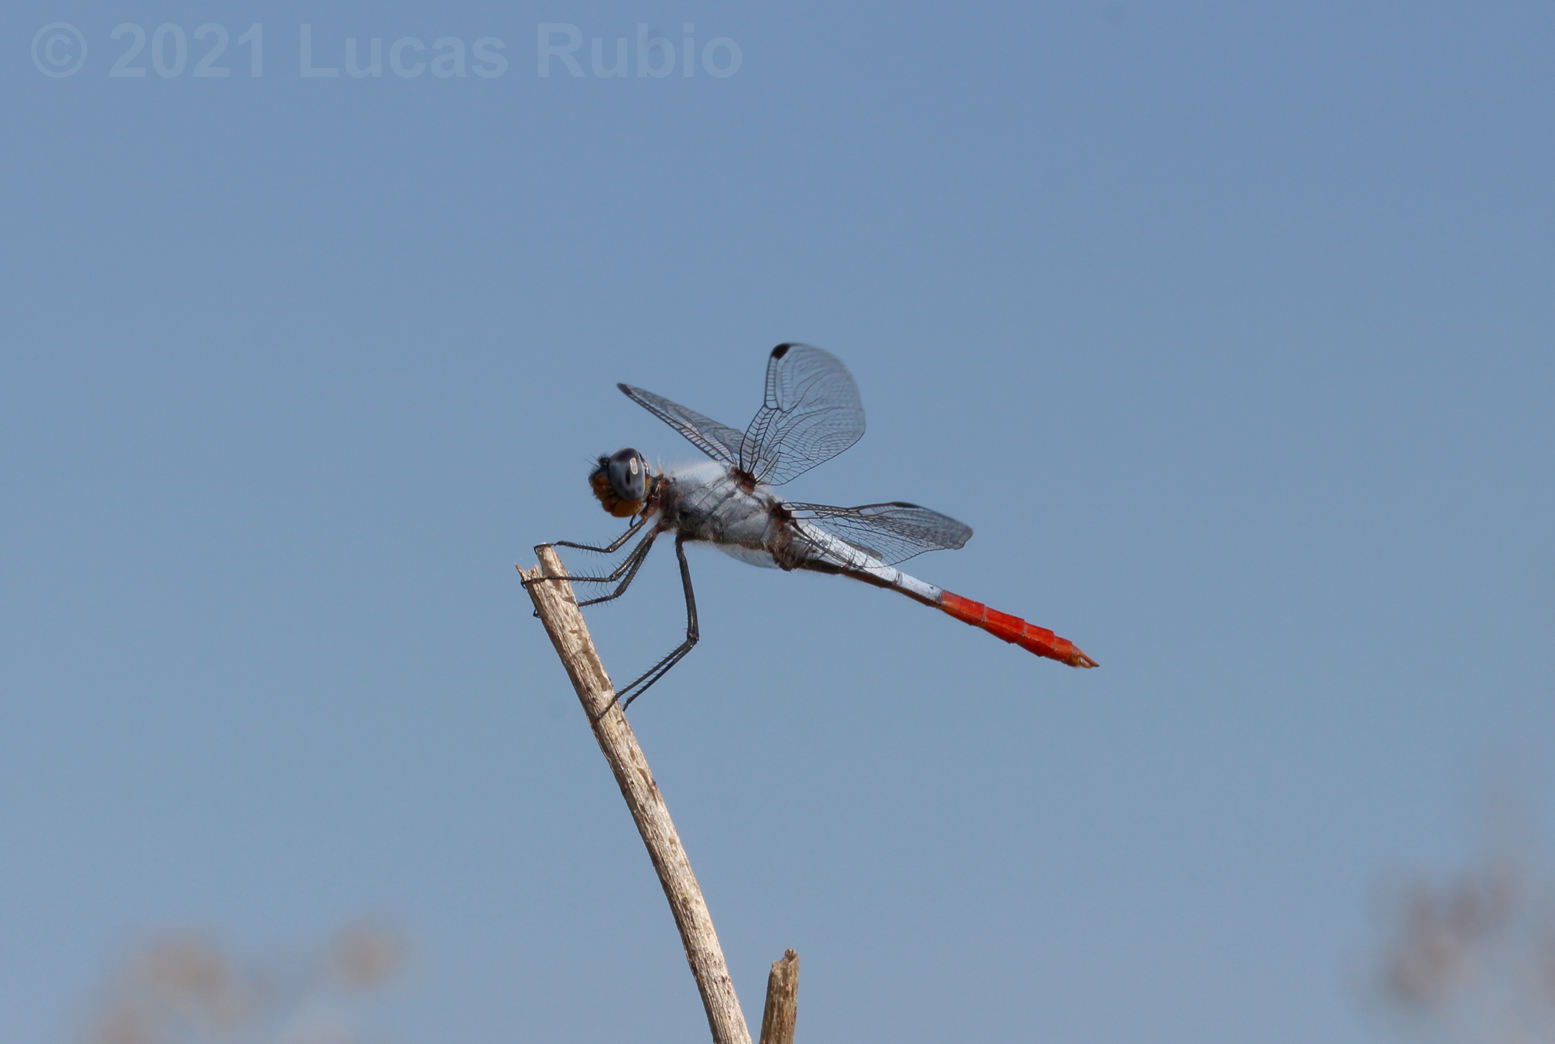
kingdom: Animalia
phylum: Arthropoda
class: Insecta
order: Odonata
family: Libellulidae
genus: Planiplax
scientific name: Planiplax erythropyga
